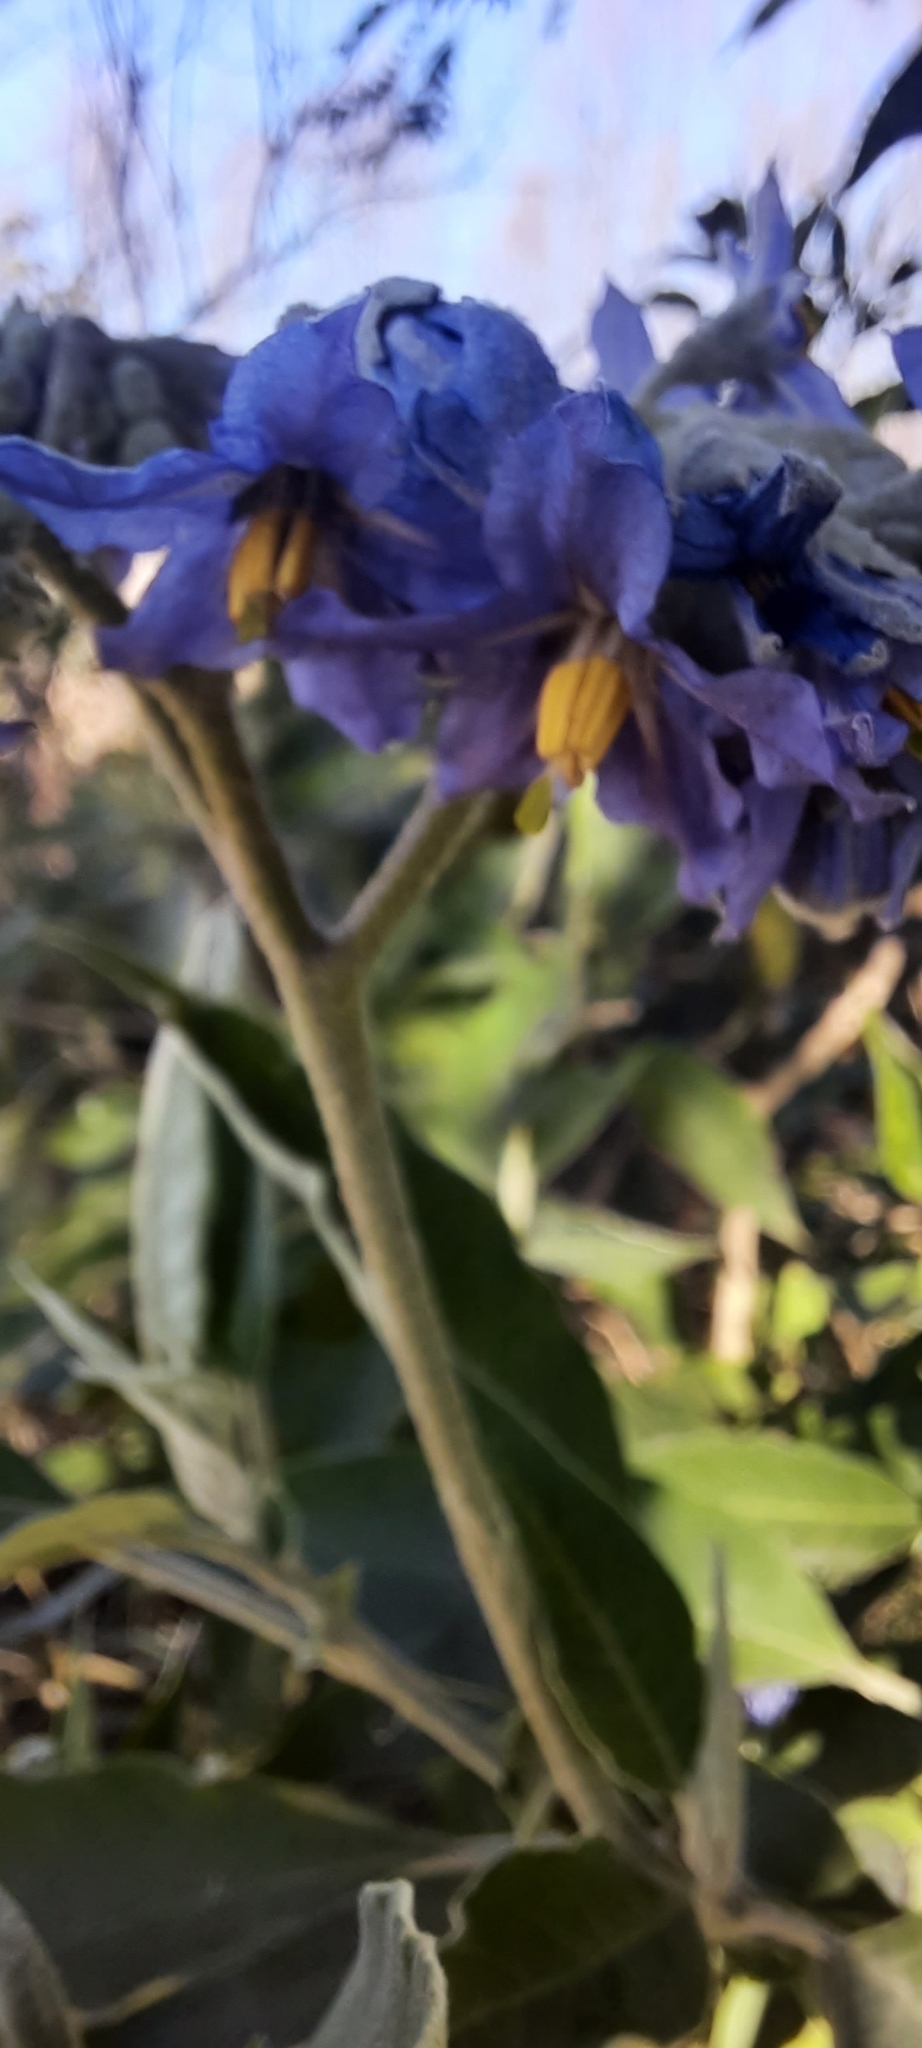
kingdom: Plantae
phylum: Tracheophyta
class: Magnoliopsida
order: Solanales
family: Solanaceae
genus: Solanum
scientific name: Solanum granulosoleprosum
